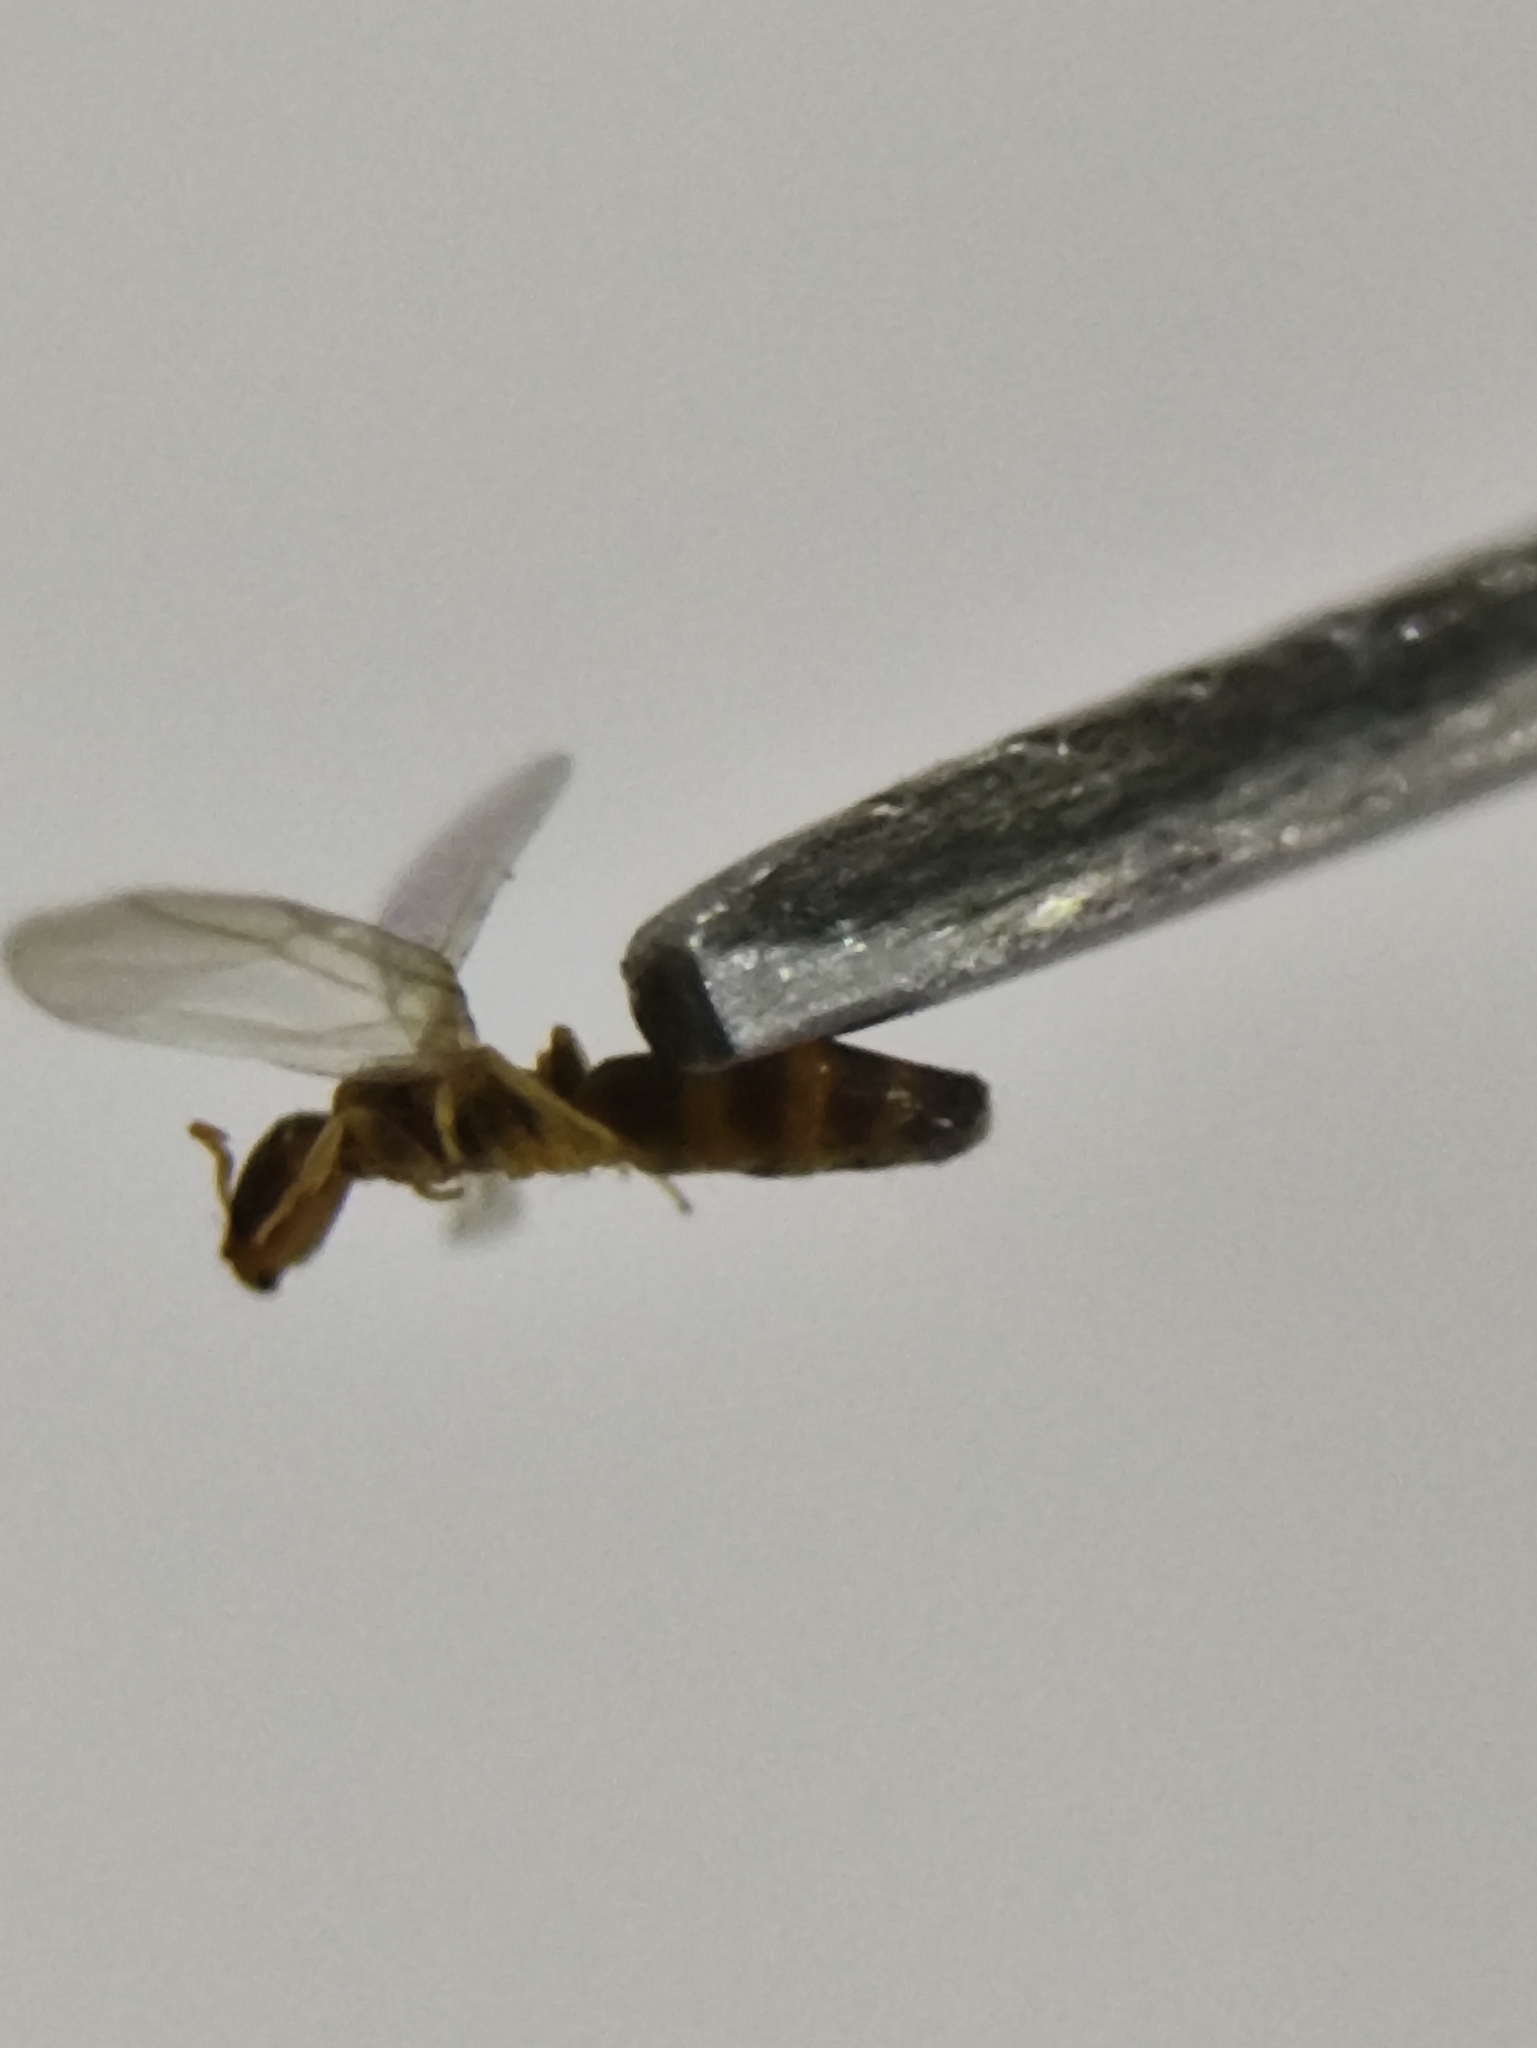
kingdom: Animalia
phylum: Arthropoda
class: Insecta
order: Hymenoptera
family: Formicidae
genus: Tapinoma
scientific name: Tapinoma annandalei
